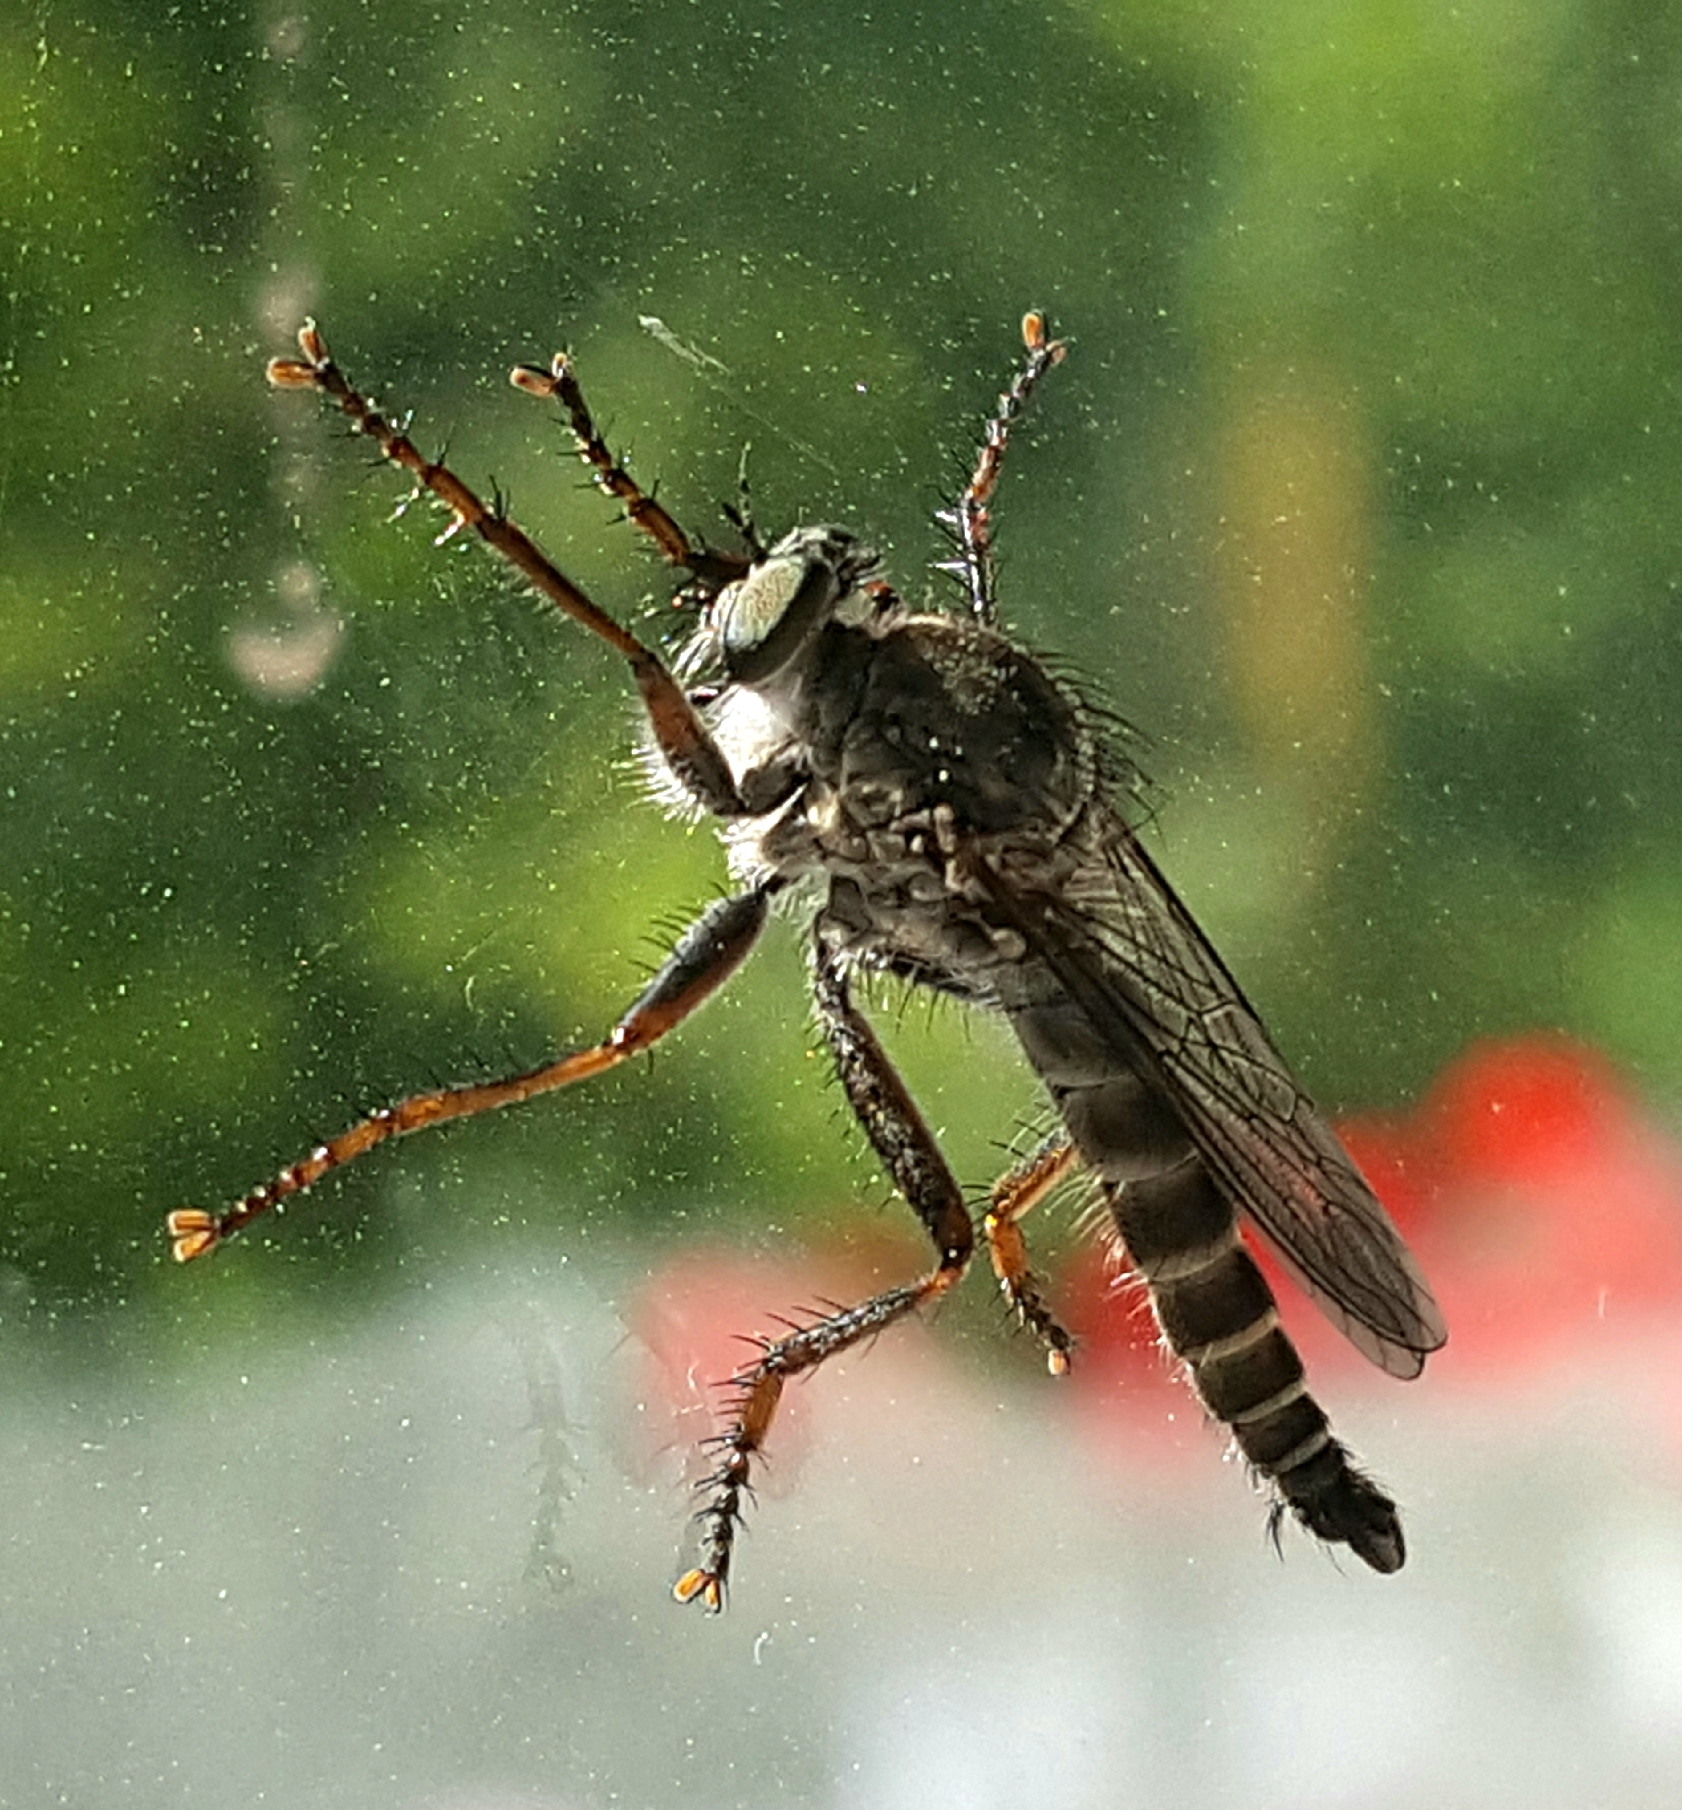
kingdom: Animalia
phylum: Arthropoda
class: Insecta
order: Diptera
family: Asilidae
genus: Machimus
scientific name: Machimus atricapillus
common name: Kite-tailed robberfly
